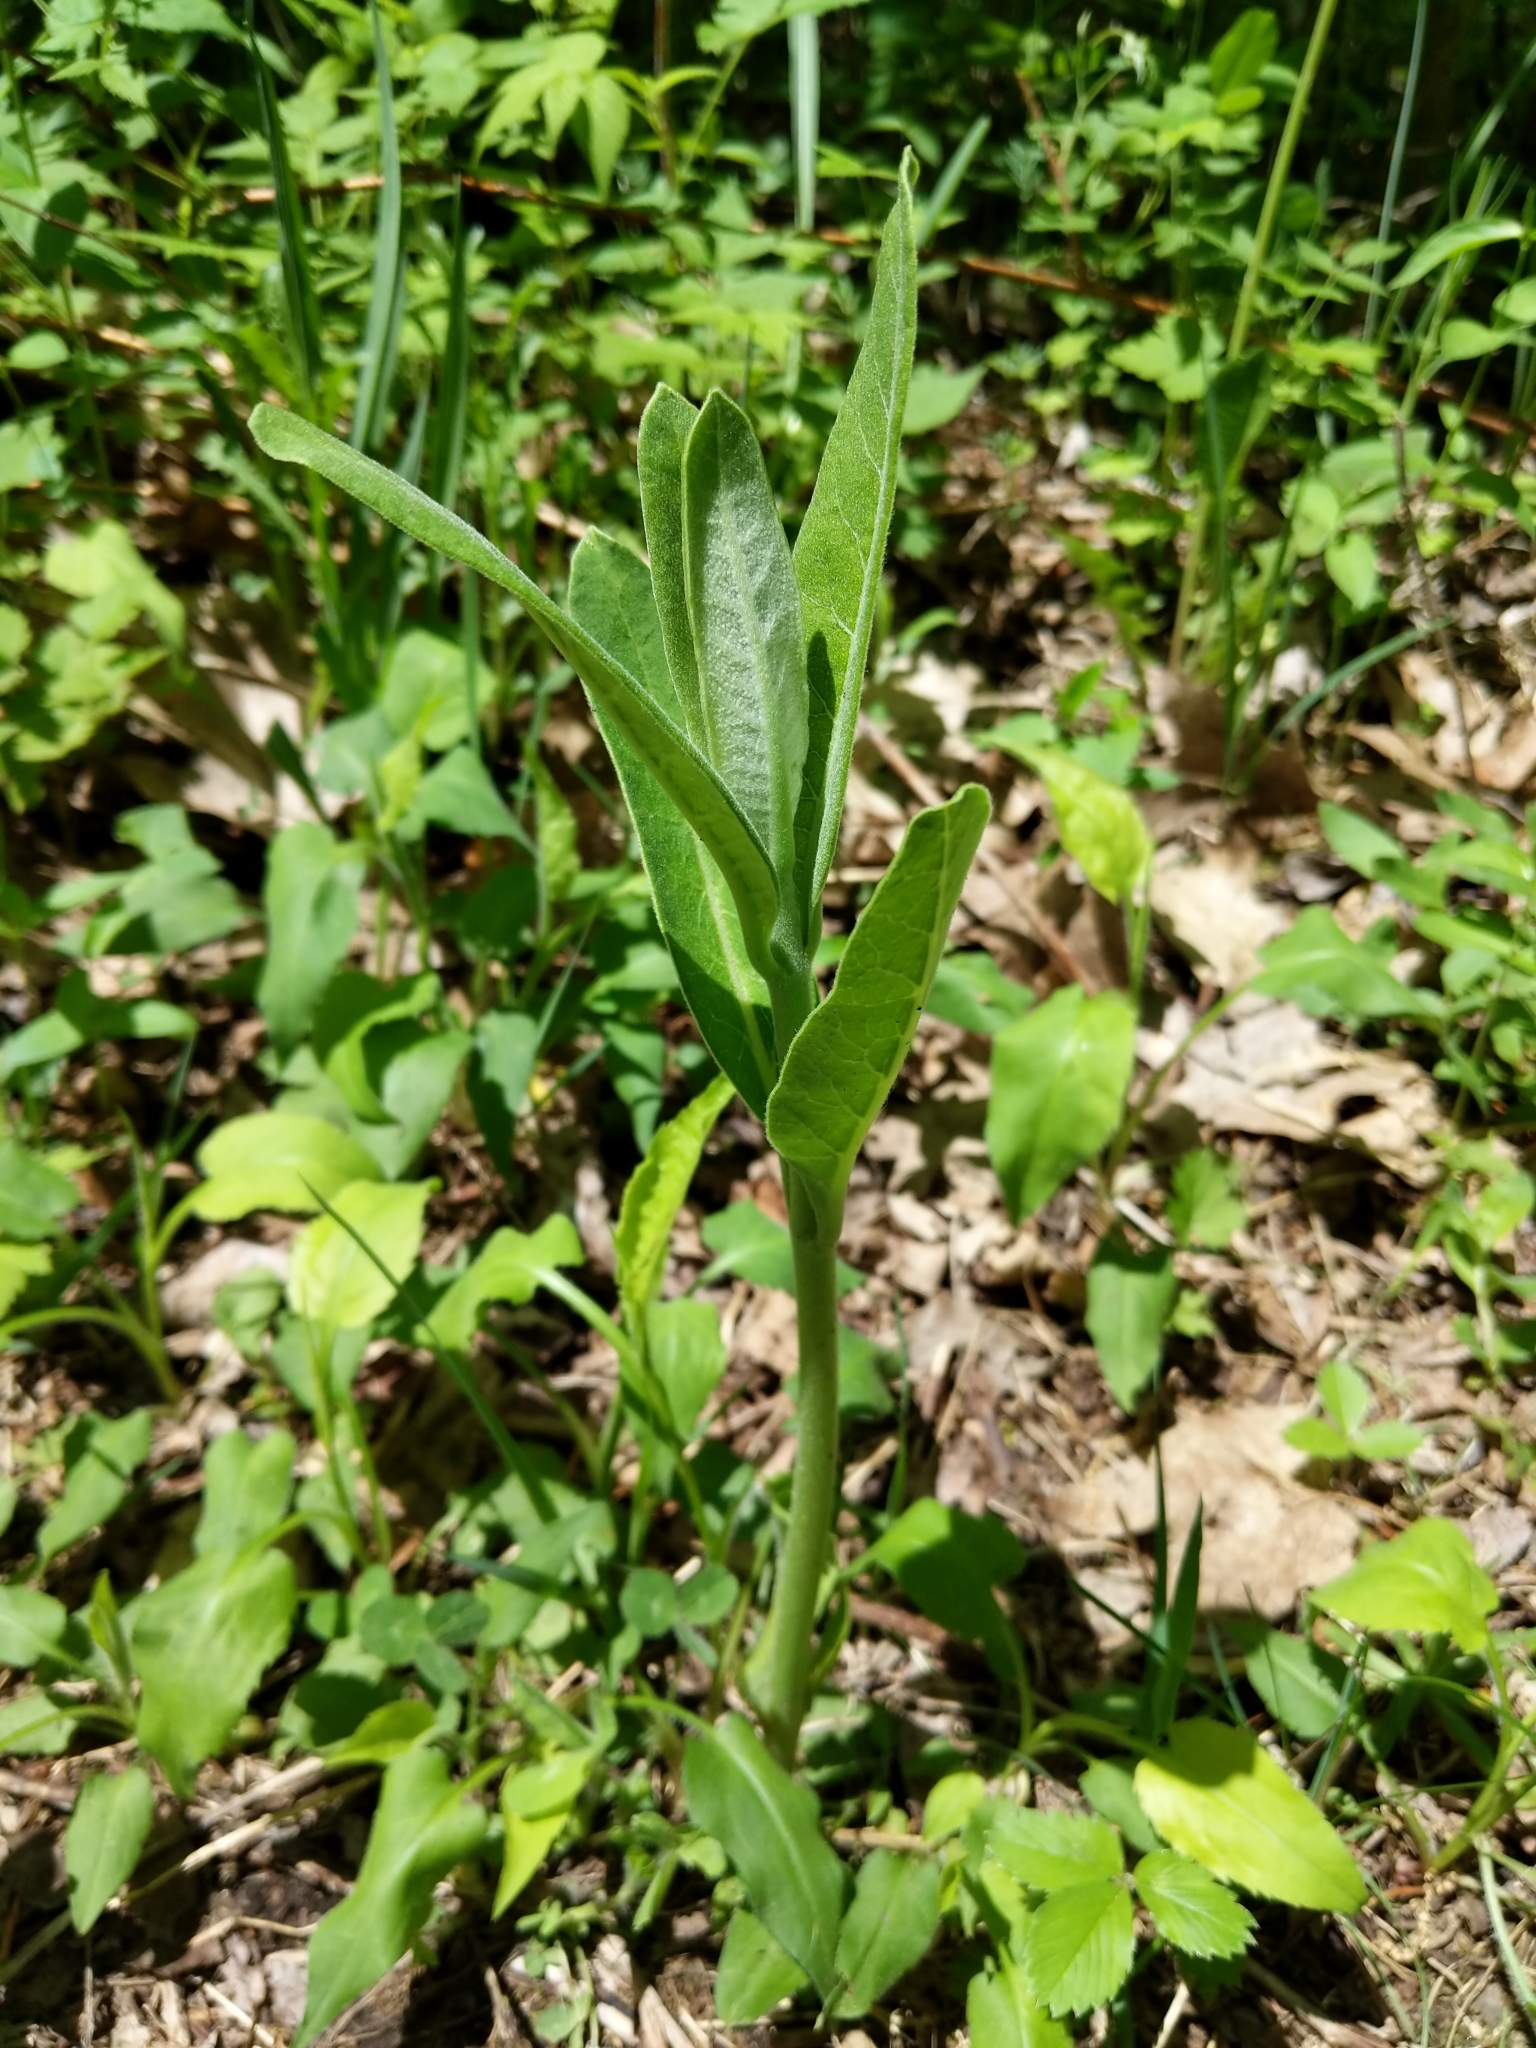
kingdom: Plantae
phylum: Tracheophyta
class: Magnoliopsida
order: Gentianales
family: Apocynaceae
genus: Asclepias
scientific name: Asclepias syriaca
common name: Common milkweed
